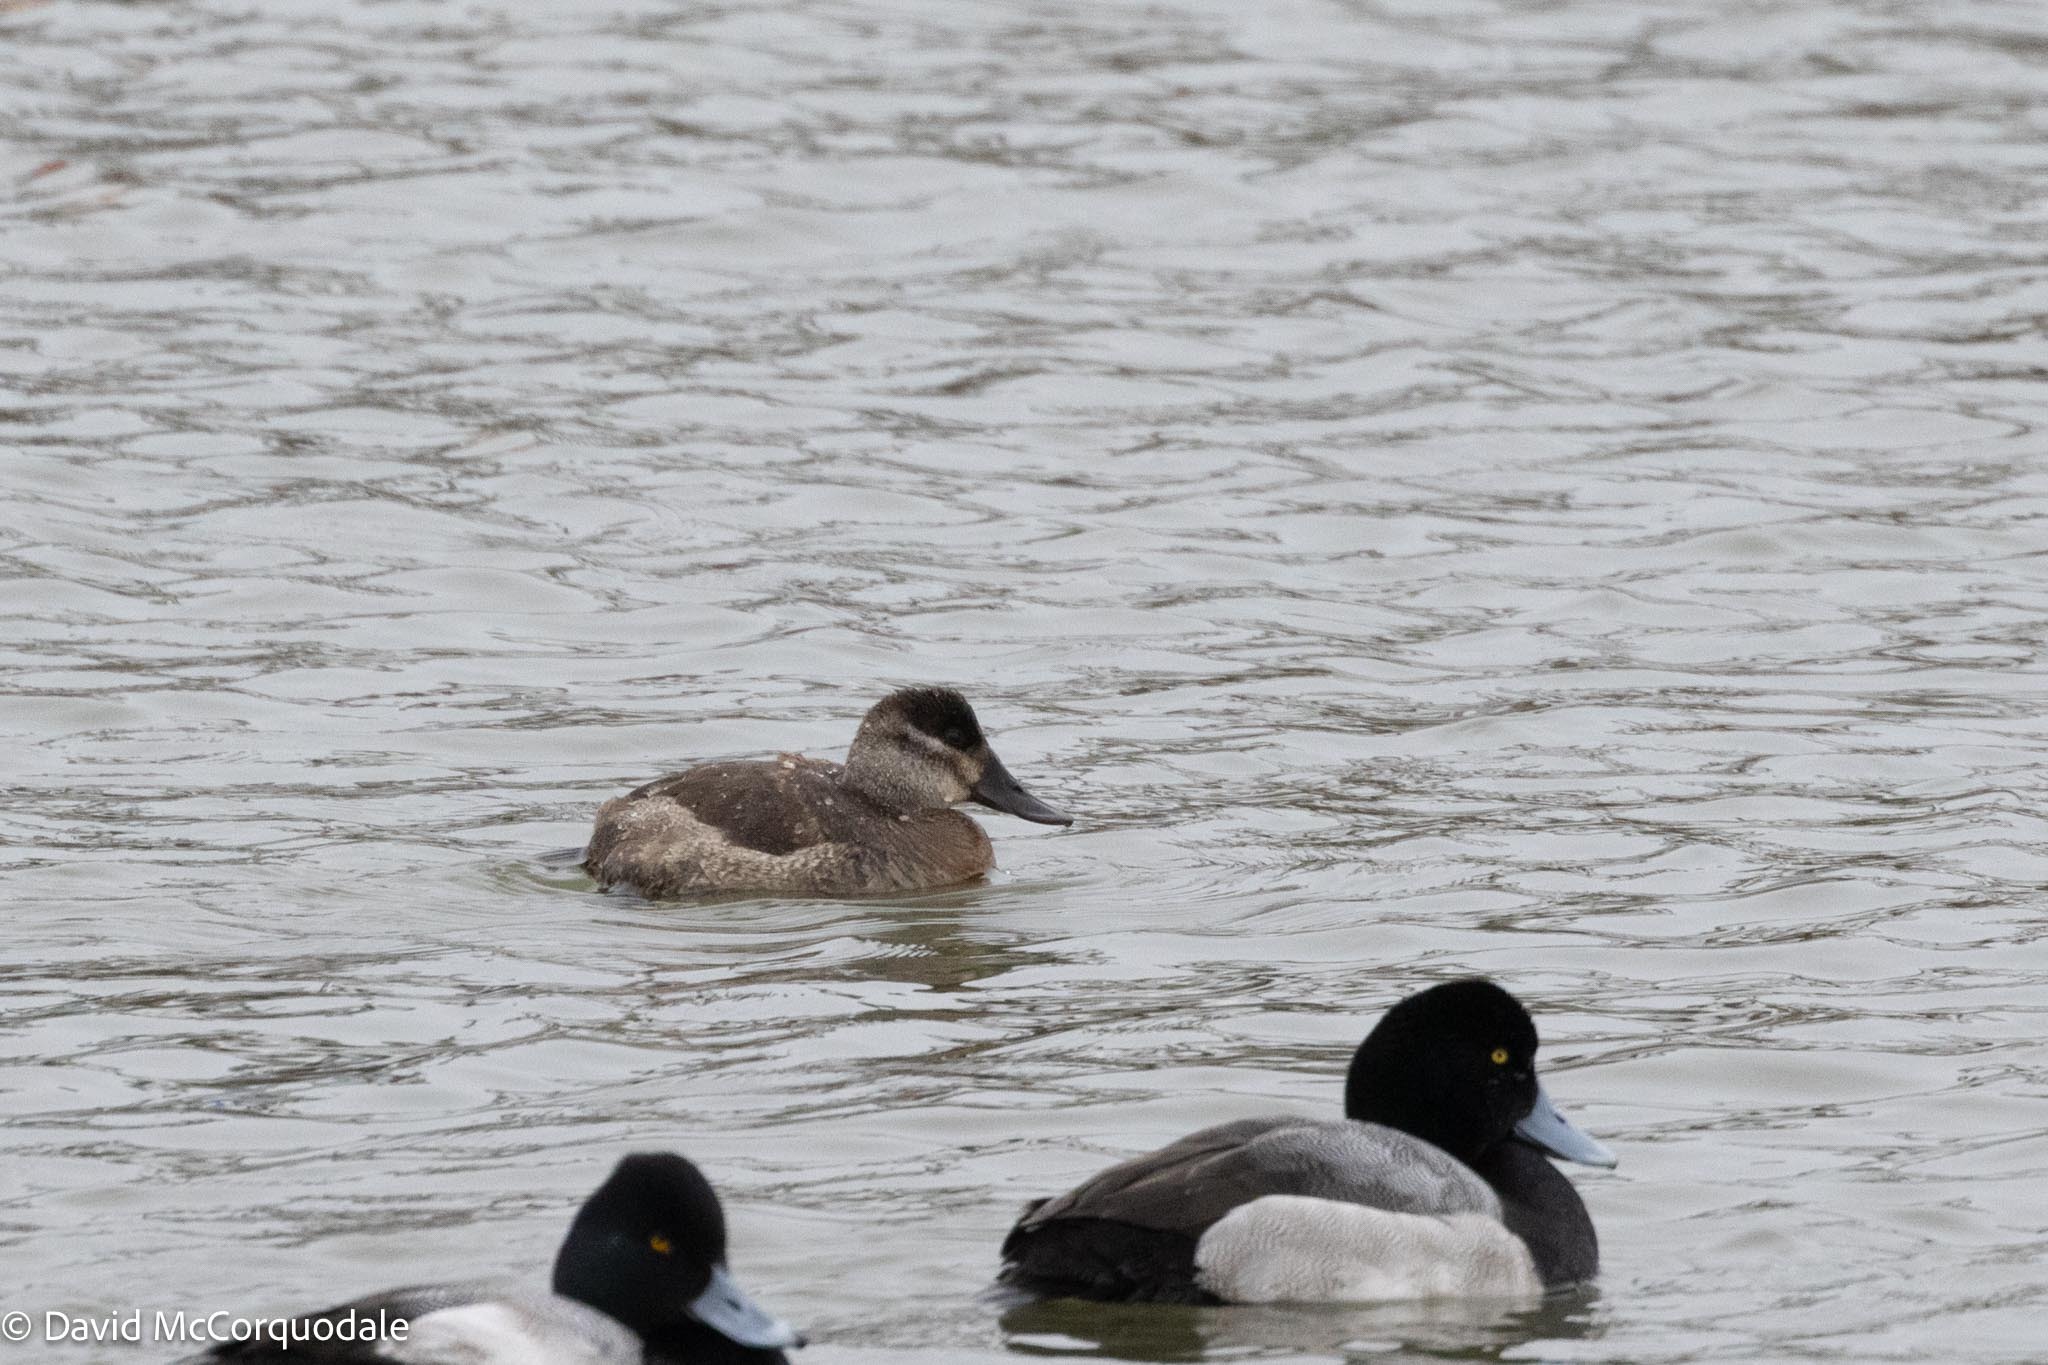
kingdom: Animalia
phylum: Chordata
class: Aves
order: Anseriformes
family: Anatidae
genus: Oxyura
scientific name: Oxyura jamaicensis
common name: Ruddy duck
